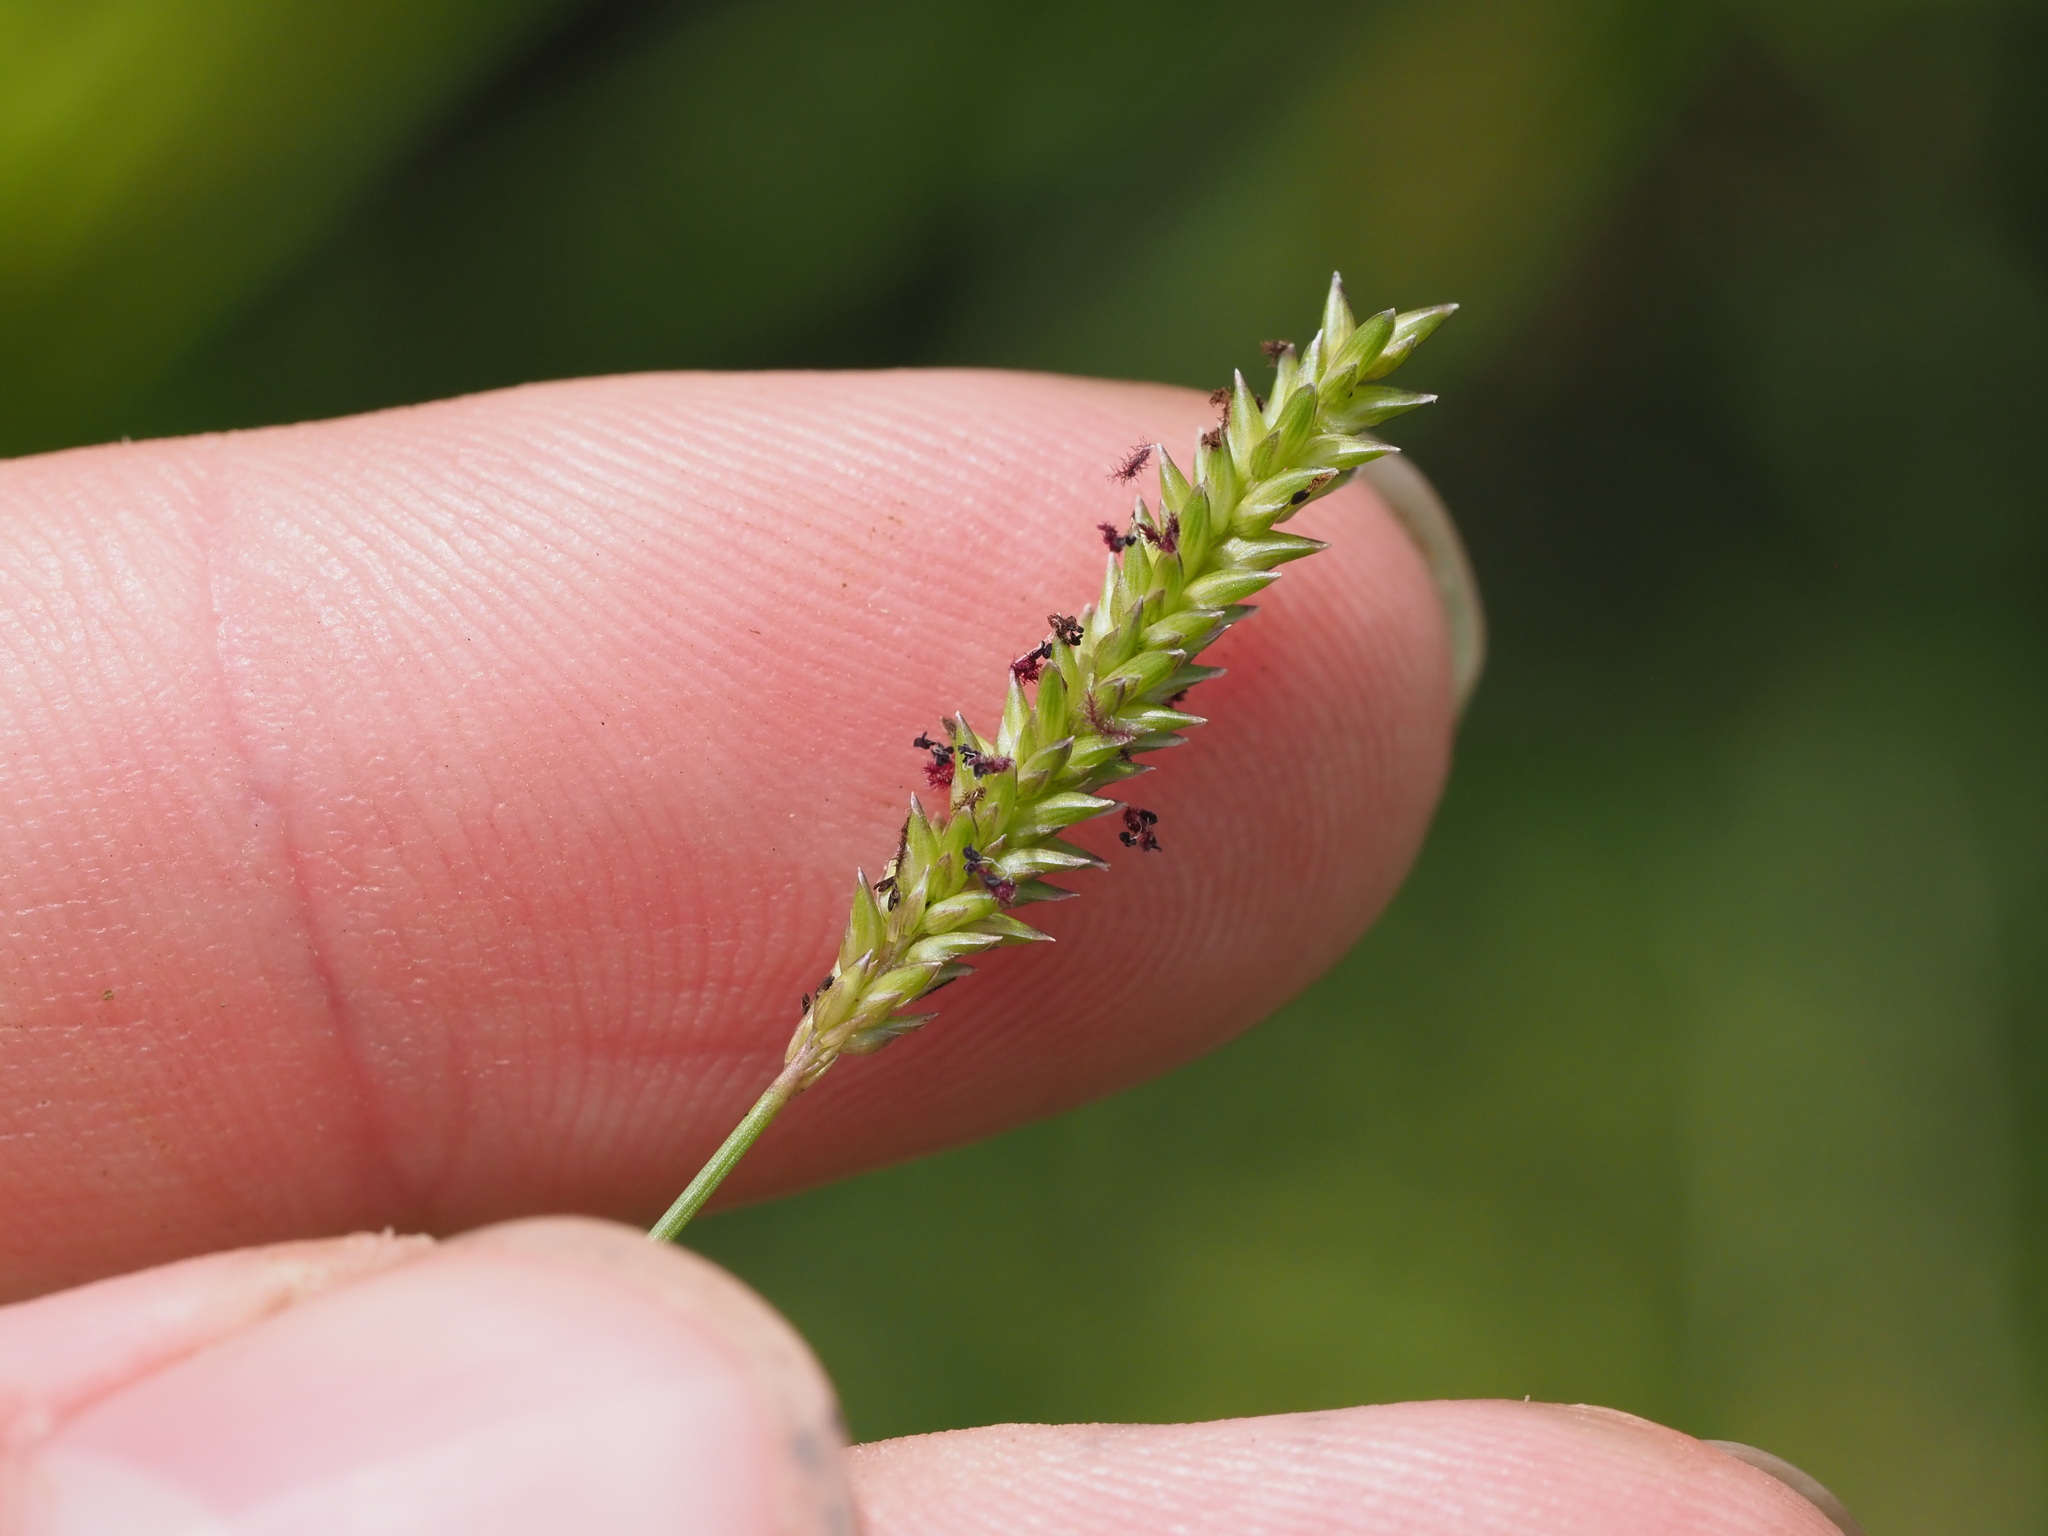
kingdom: Plantae
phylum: Tracheophyta
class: Liliopsida
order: Poales
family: Poaceae
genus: Sacciolepis
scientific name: Sacciolepis indica
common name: Glenwoodgrass
